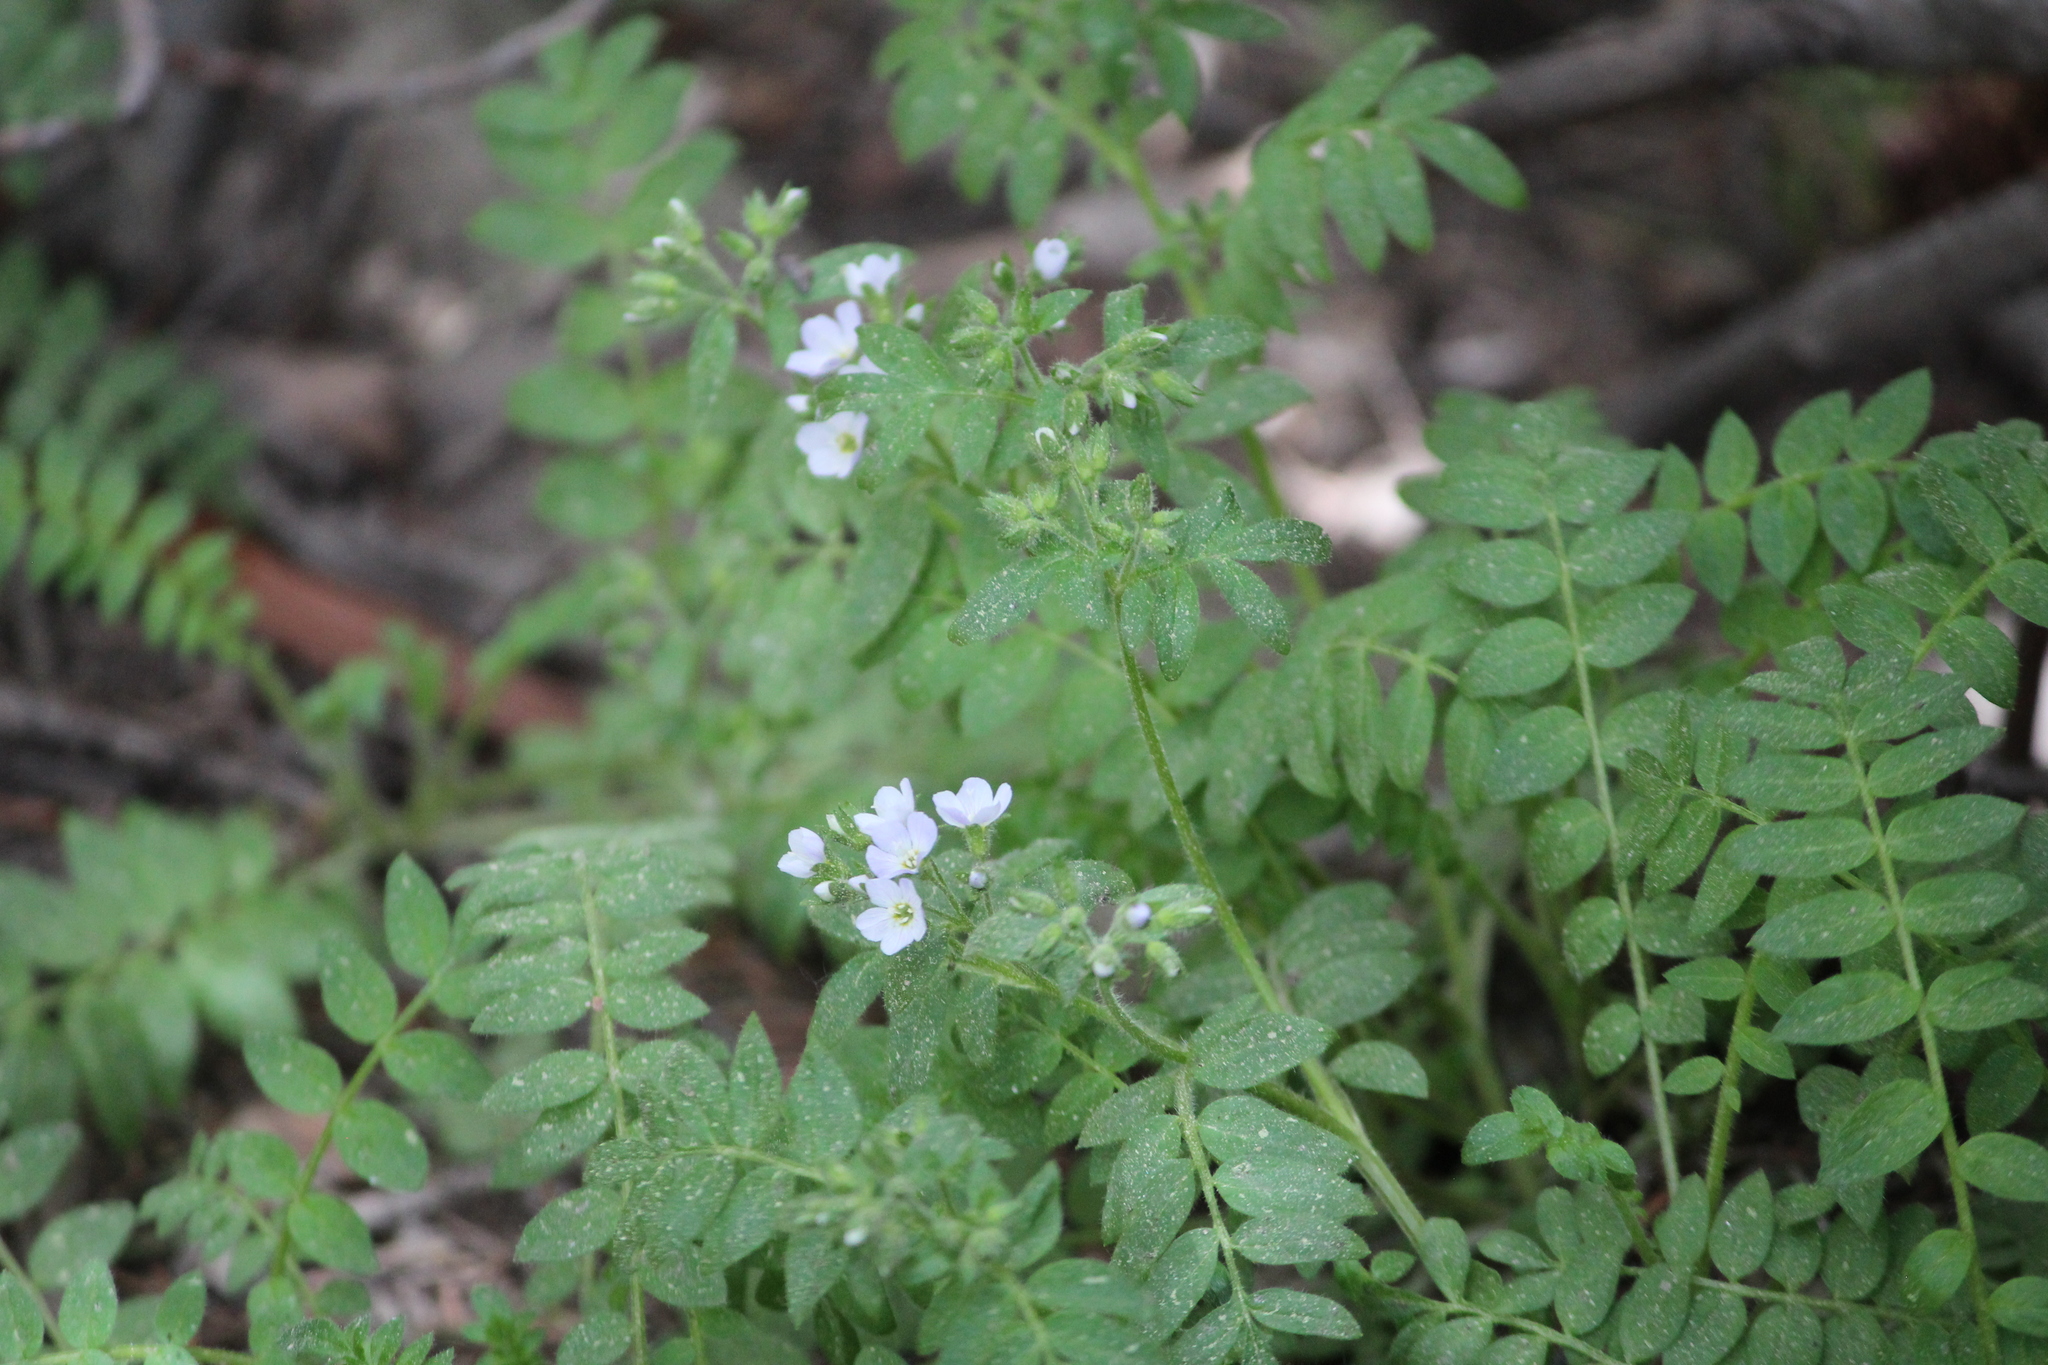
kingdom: Plantae
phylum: Tracheophyta
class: Magnoliopsida
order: Ericales
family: Polemoniaceae
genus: Polemonium
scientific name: Polemonium pulcherrimum
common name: Short jacob's-ladder
